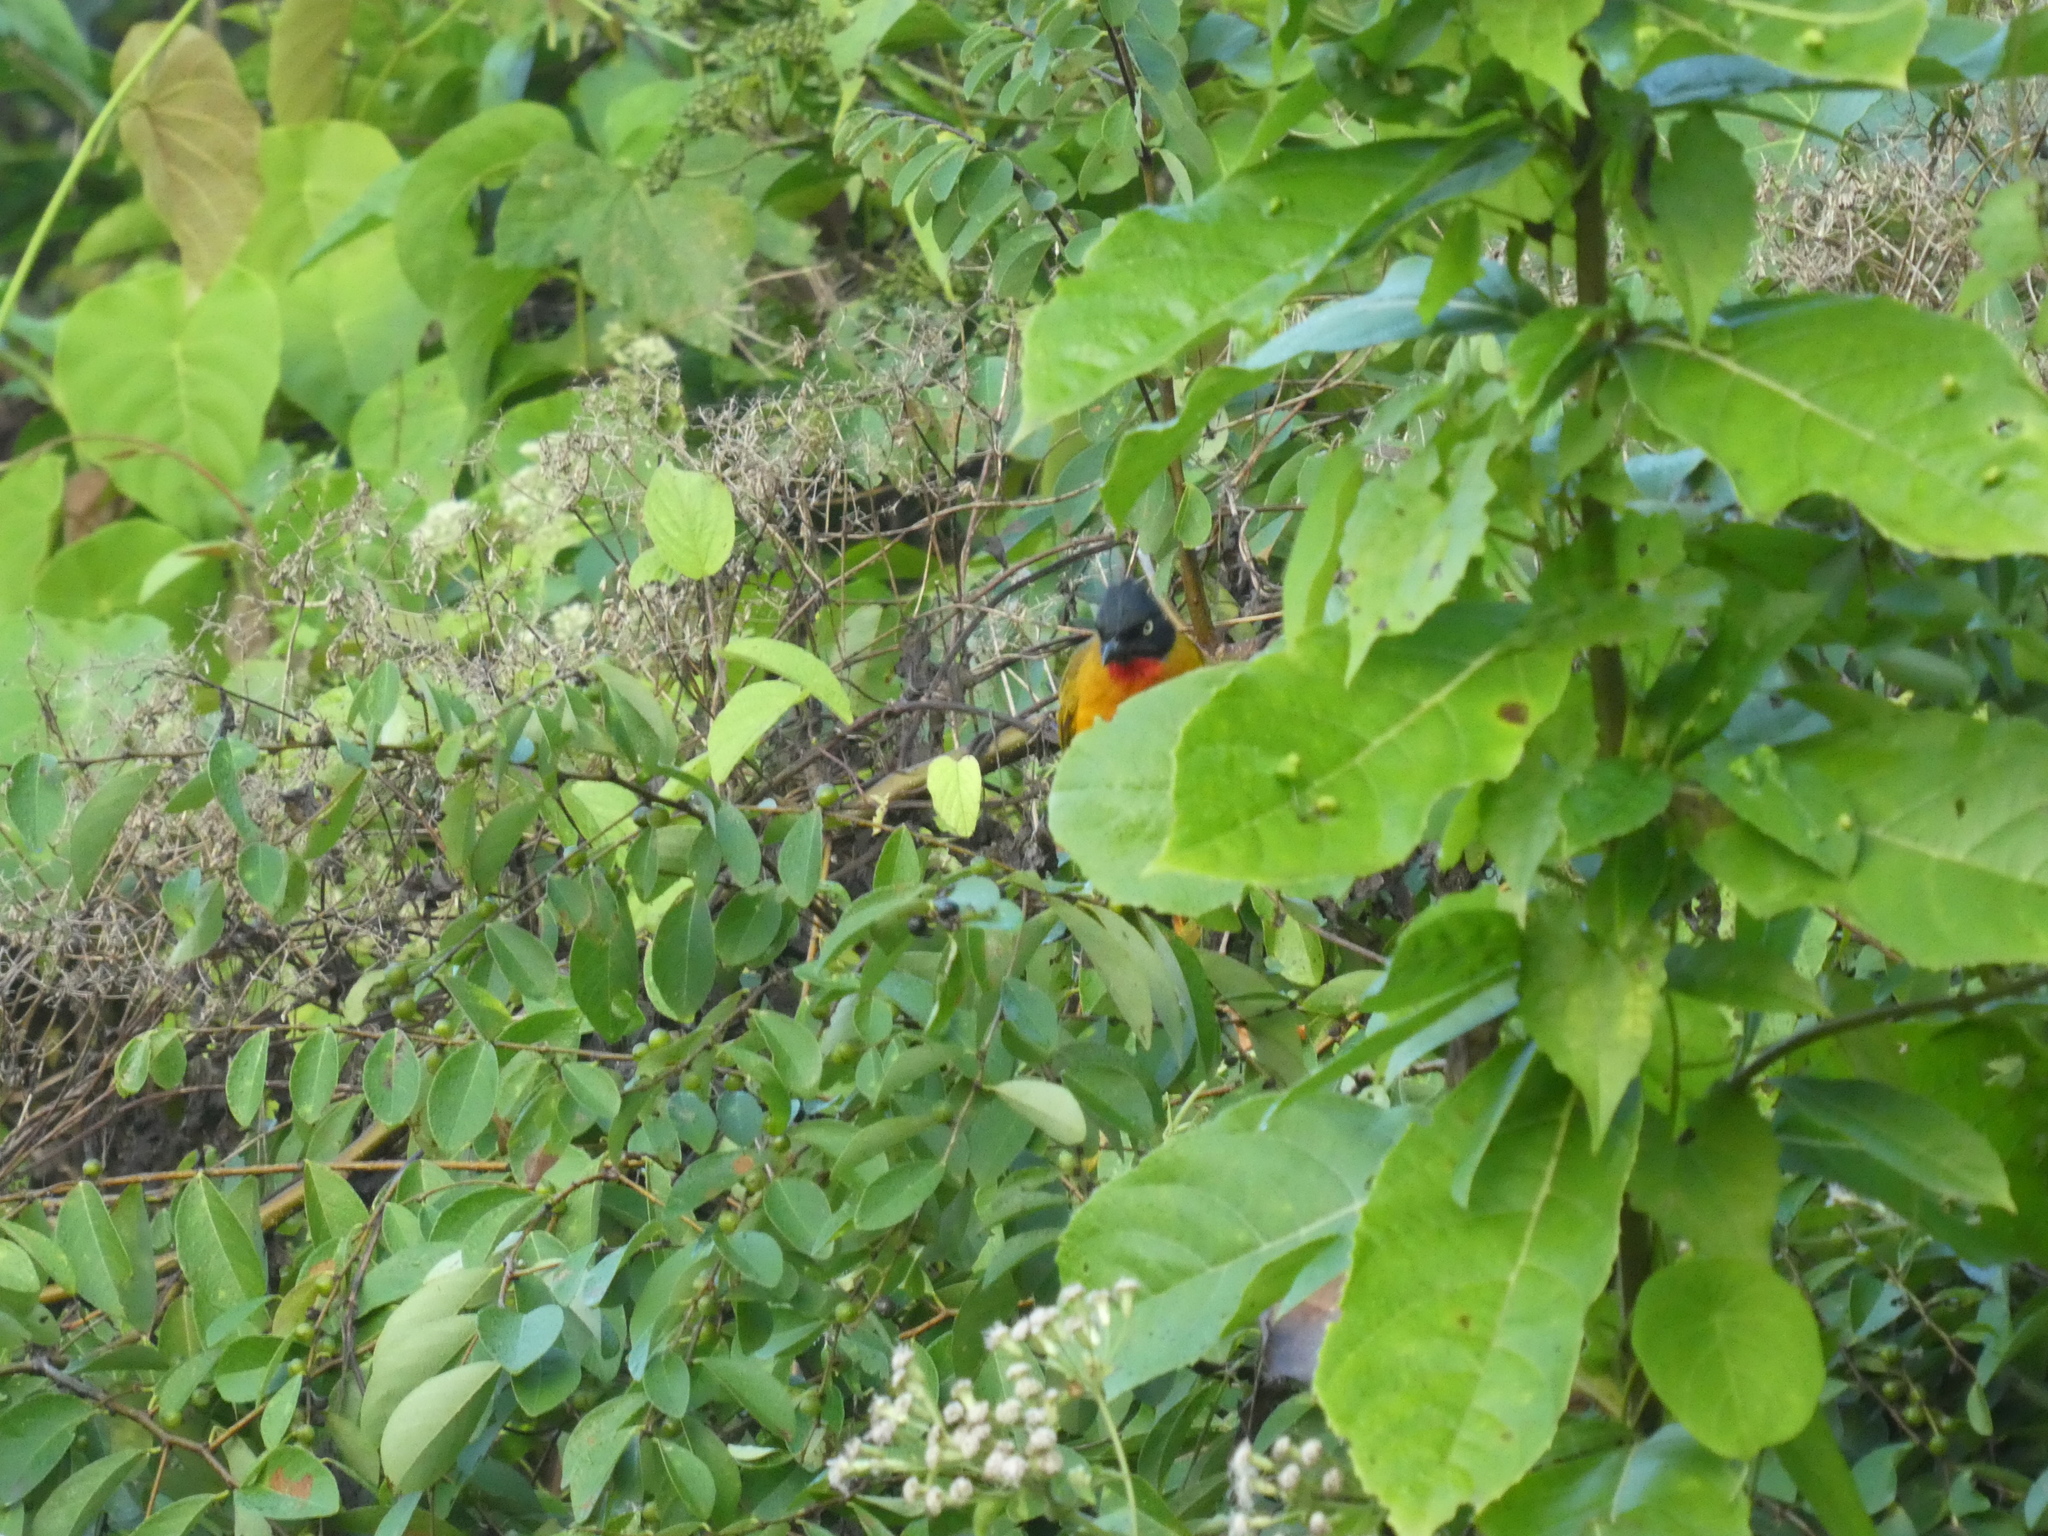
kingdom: Animalia
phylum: Chordata
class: Aves
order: Passeriformes
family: Pycnonotidae
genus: Pycnonotus
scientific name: Pycnonotus dispar
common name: Ruby-throated bulbul
